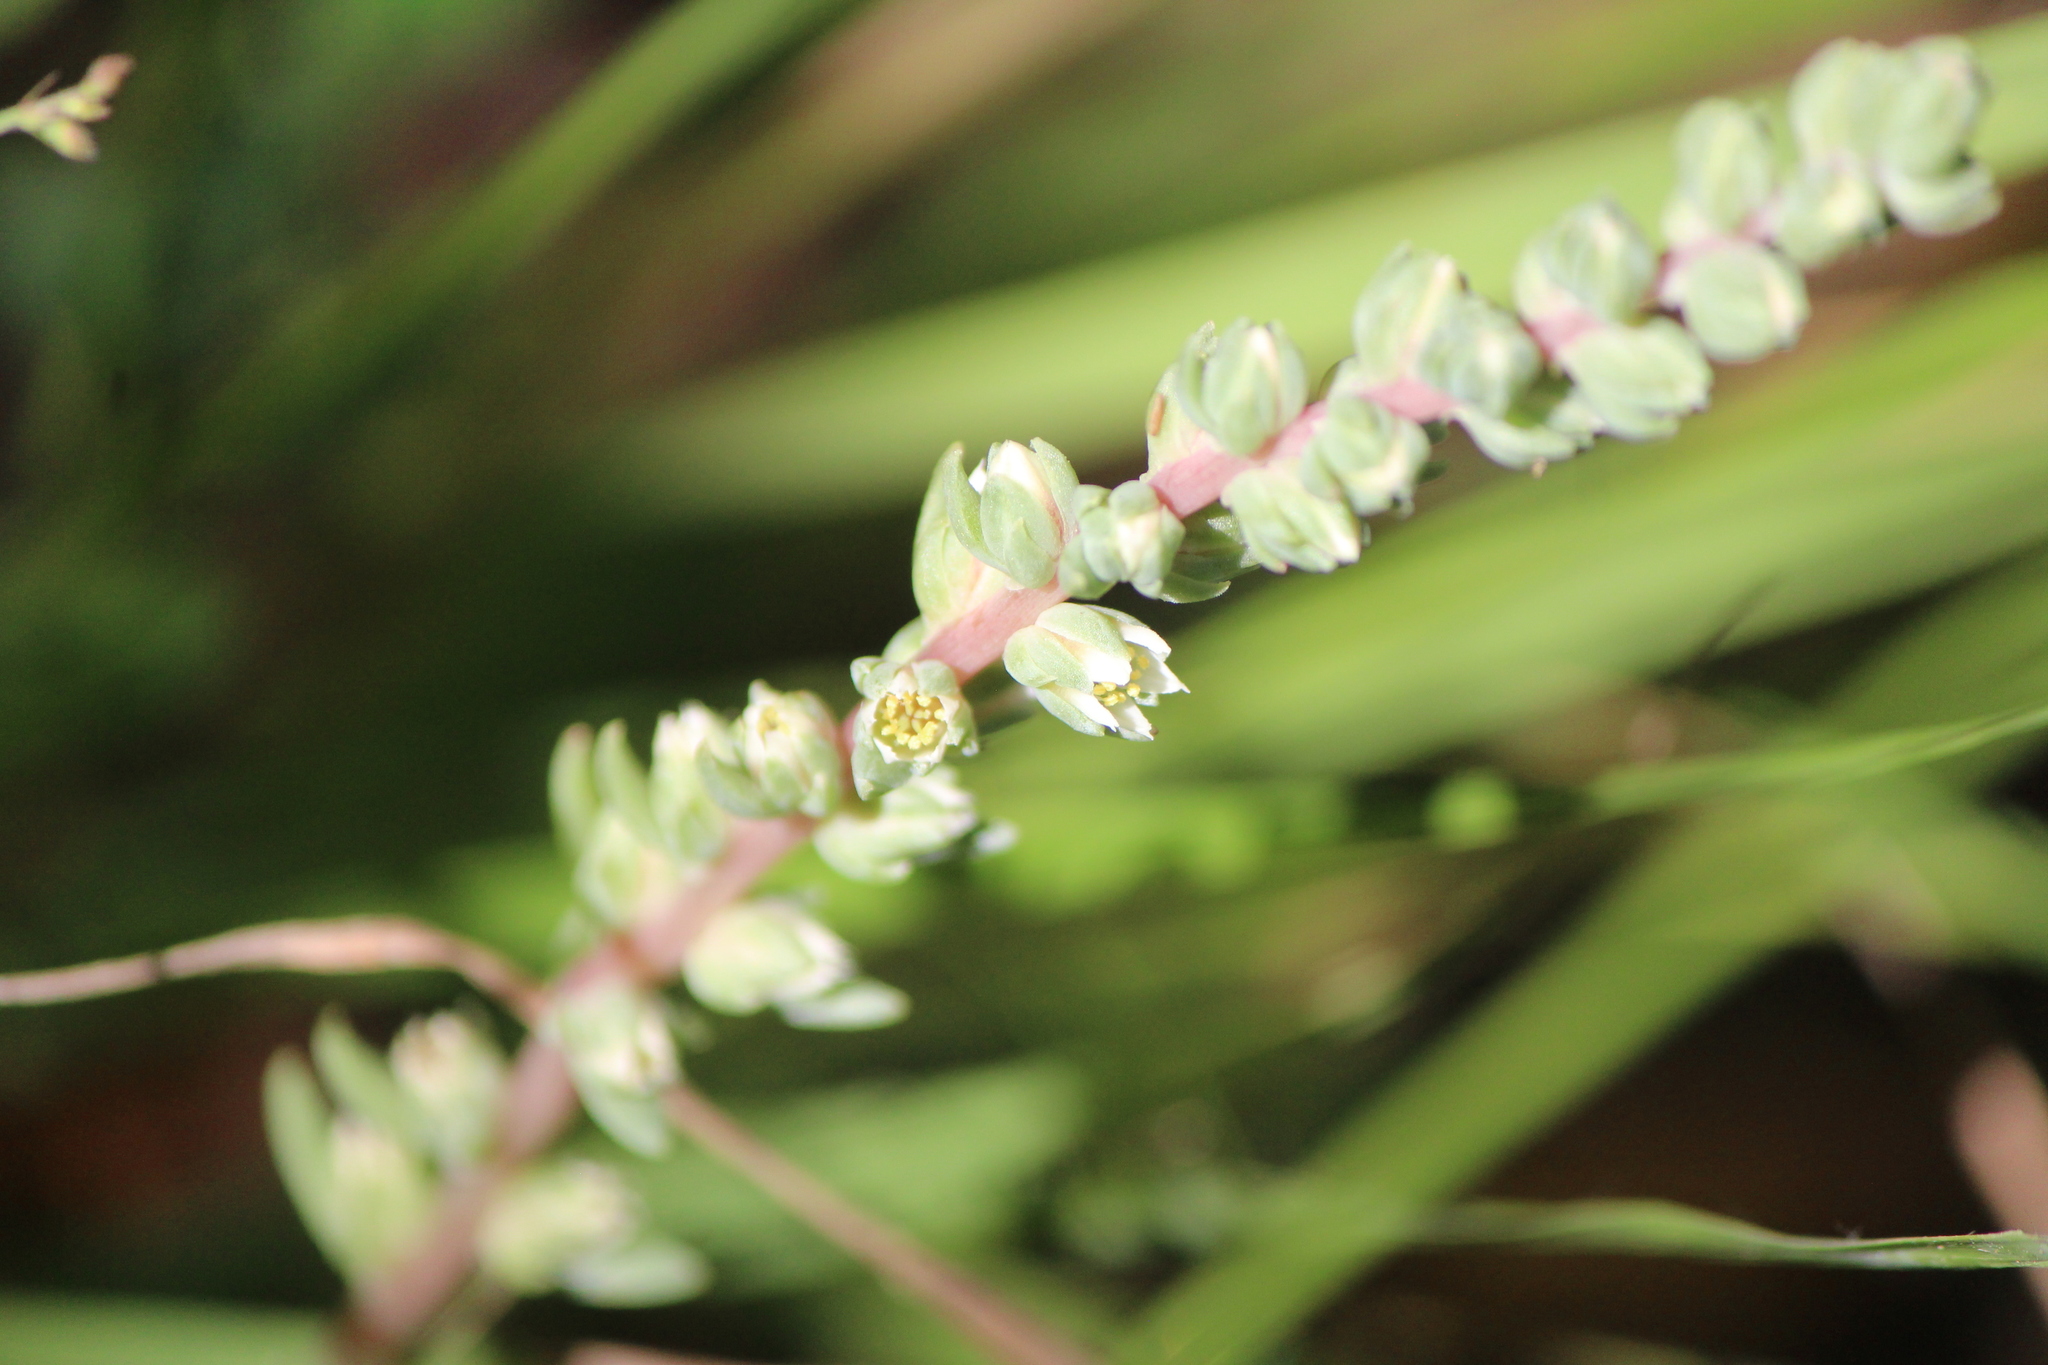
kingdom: Plantae
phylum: Tracheophyta
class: Magnoliopsida
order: Saxifragales
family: Crassulaceae
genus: Villadia
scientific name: Villadia patula
